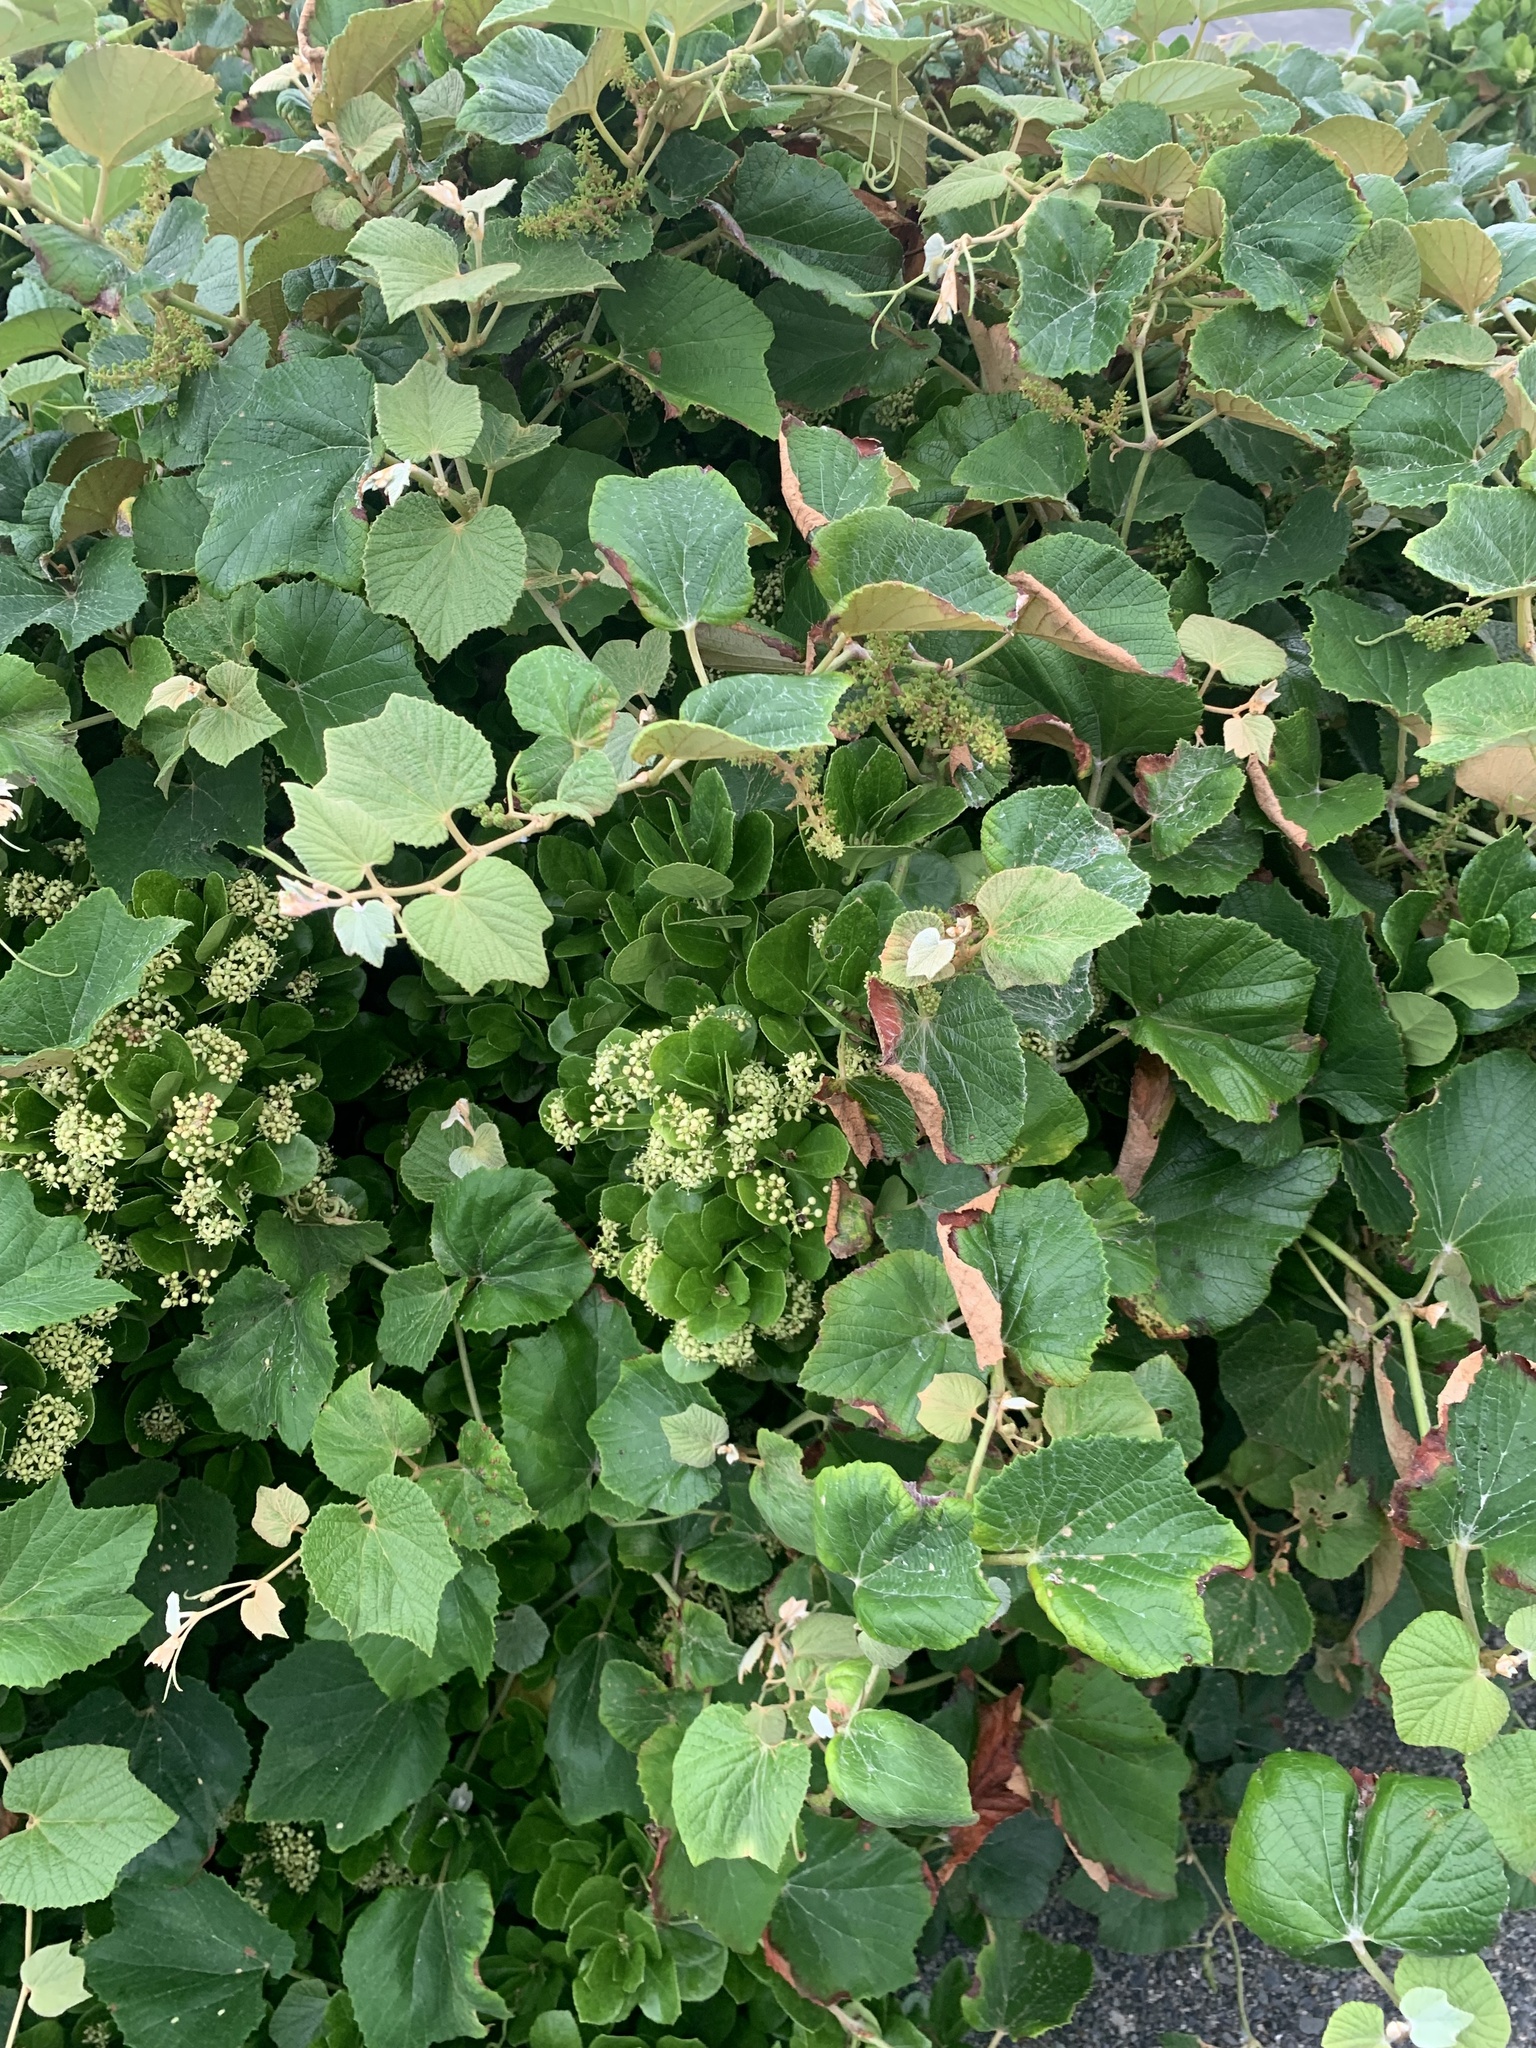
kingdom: Plantae
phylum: Tracheophyta
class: Magnoliopsida
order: Vitales
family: Vitaceae
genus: Vitis
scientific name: Vitis ficifolia
